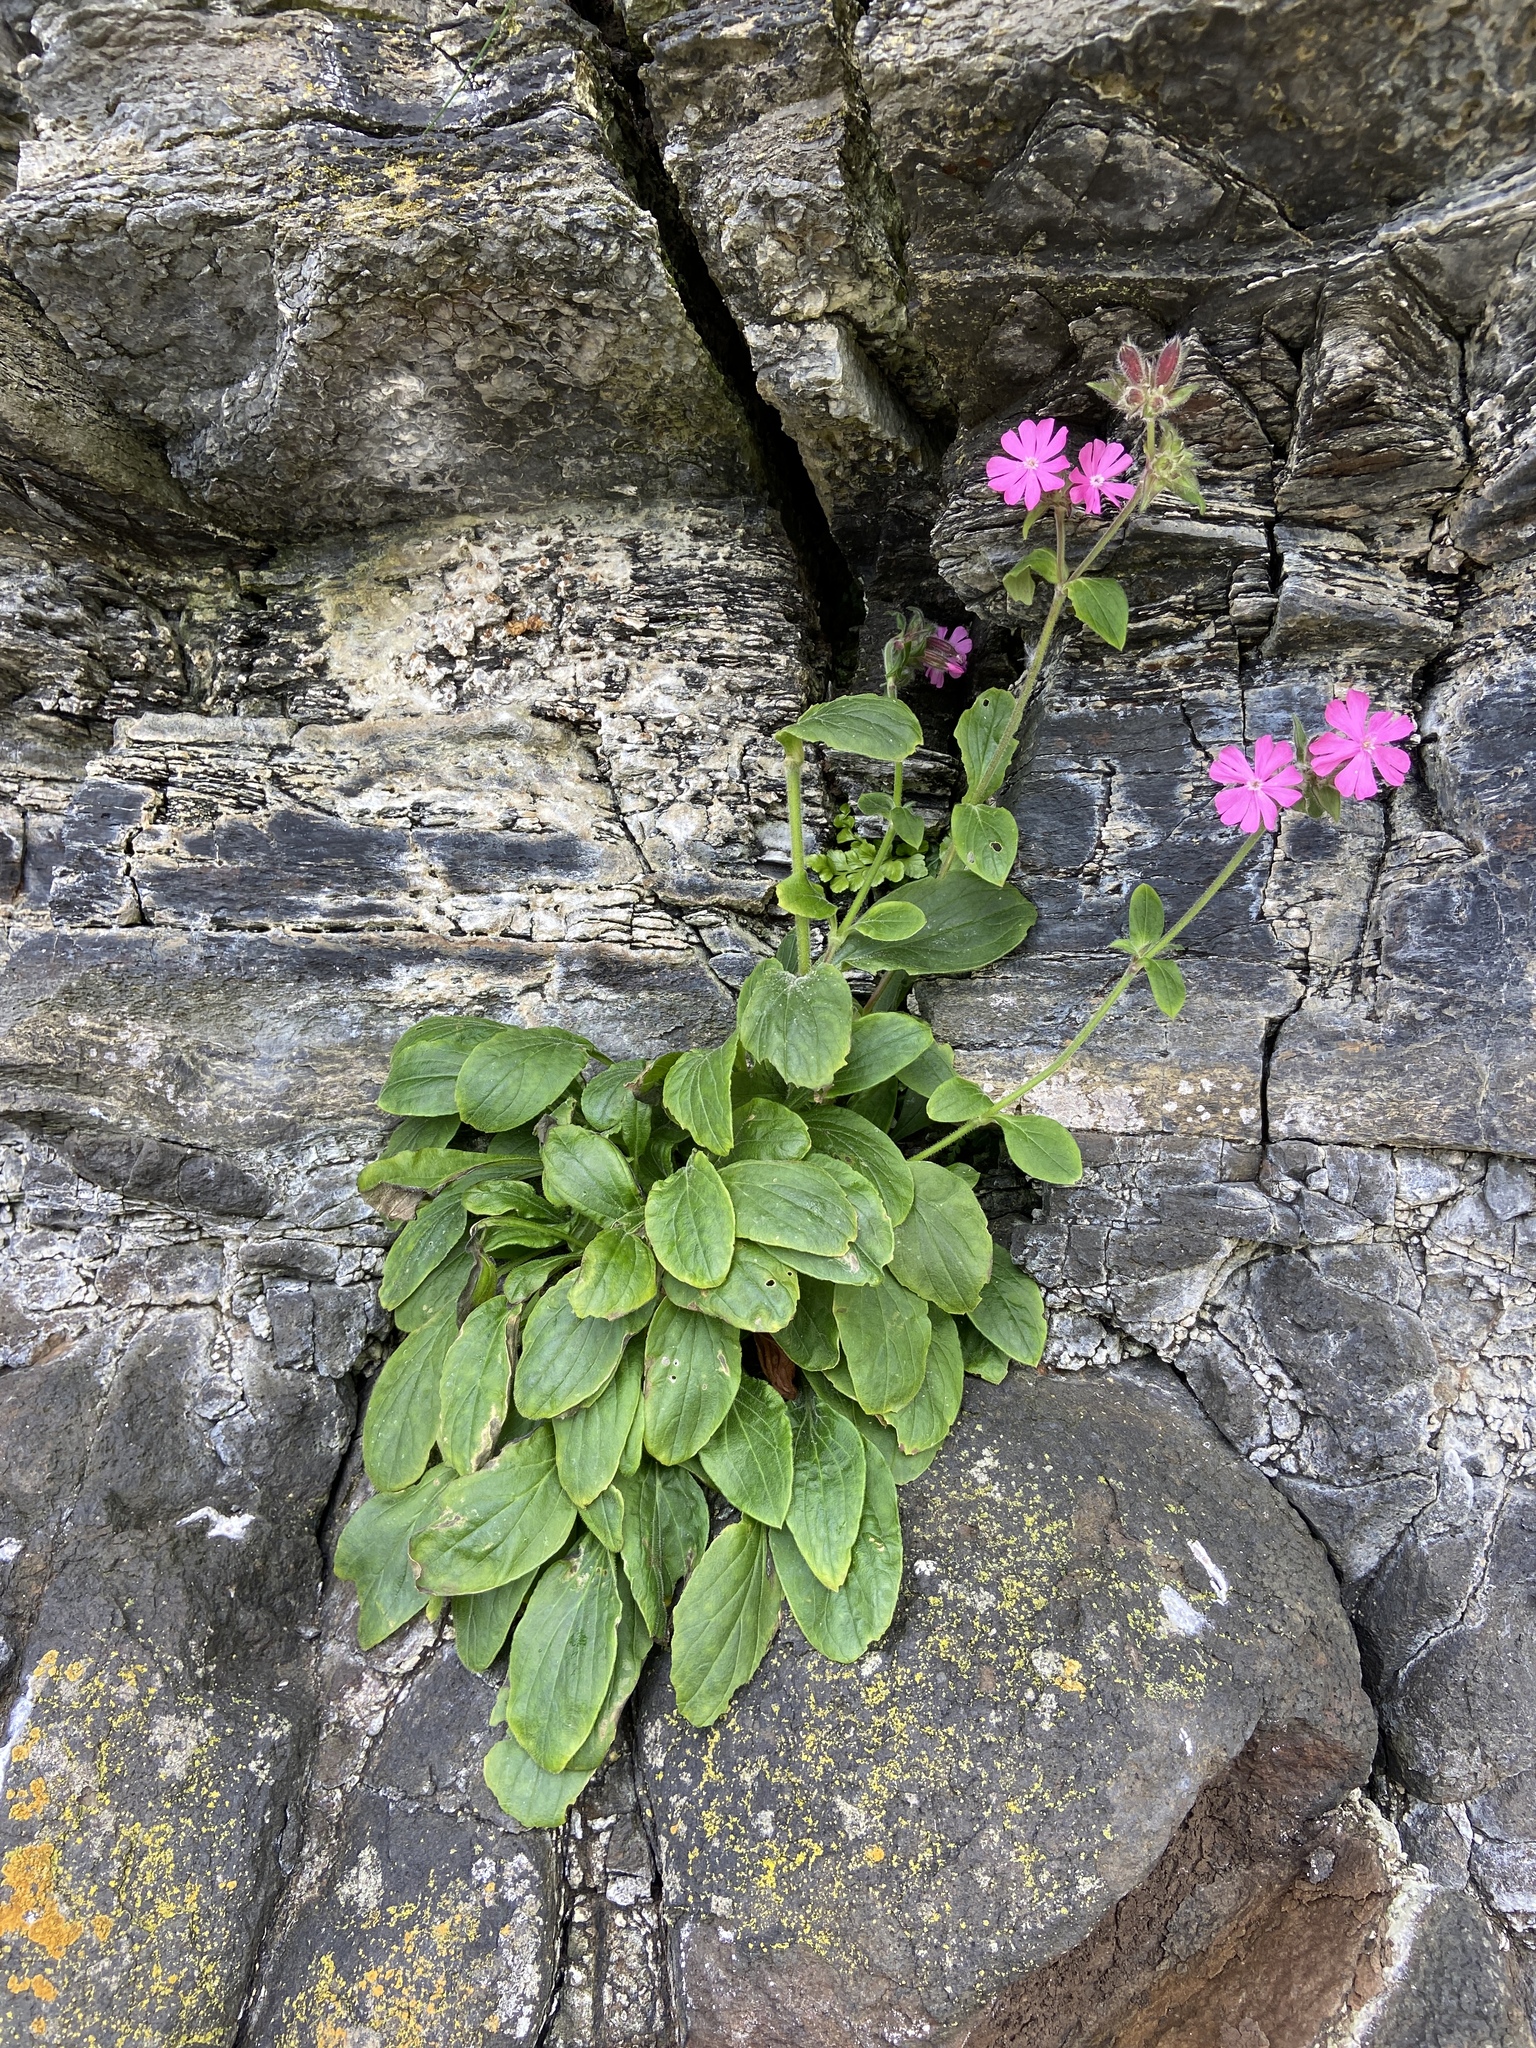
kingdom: Plantae
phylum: Tracheophyta
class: Magnoliopsida
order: Caryophyllales
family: Caryophyllaceae
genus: Silene
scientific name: Silene dioica
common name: Red campion
